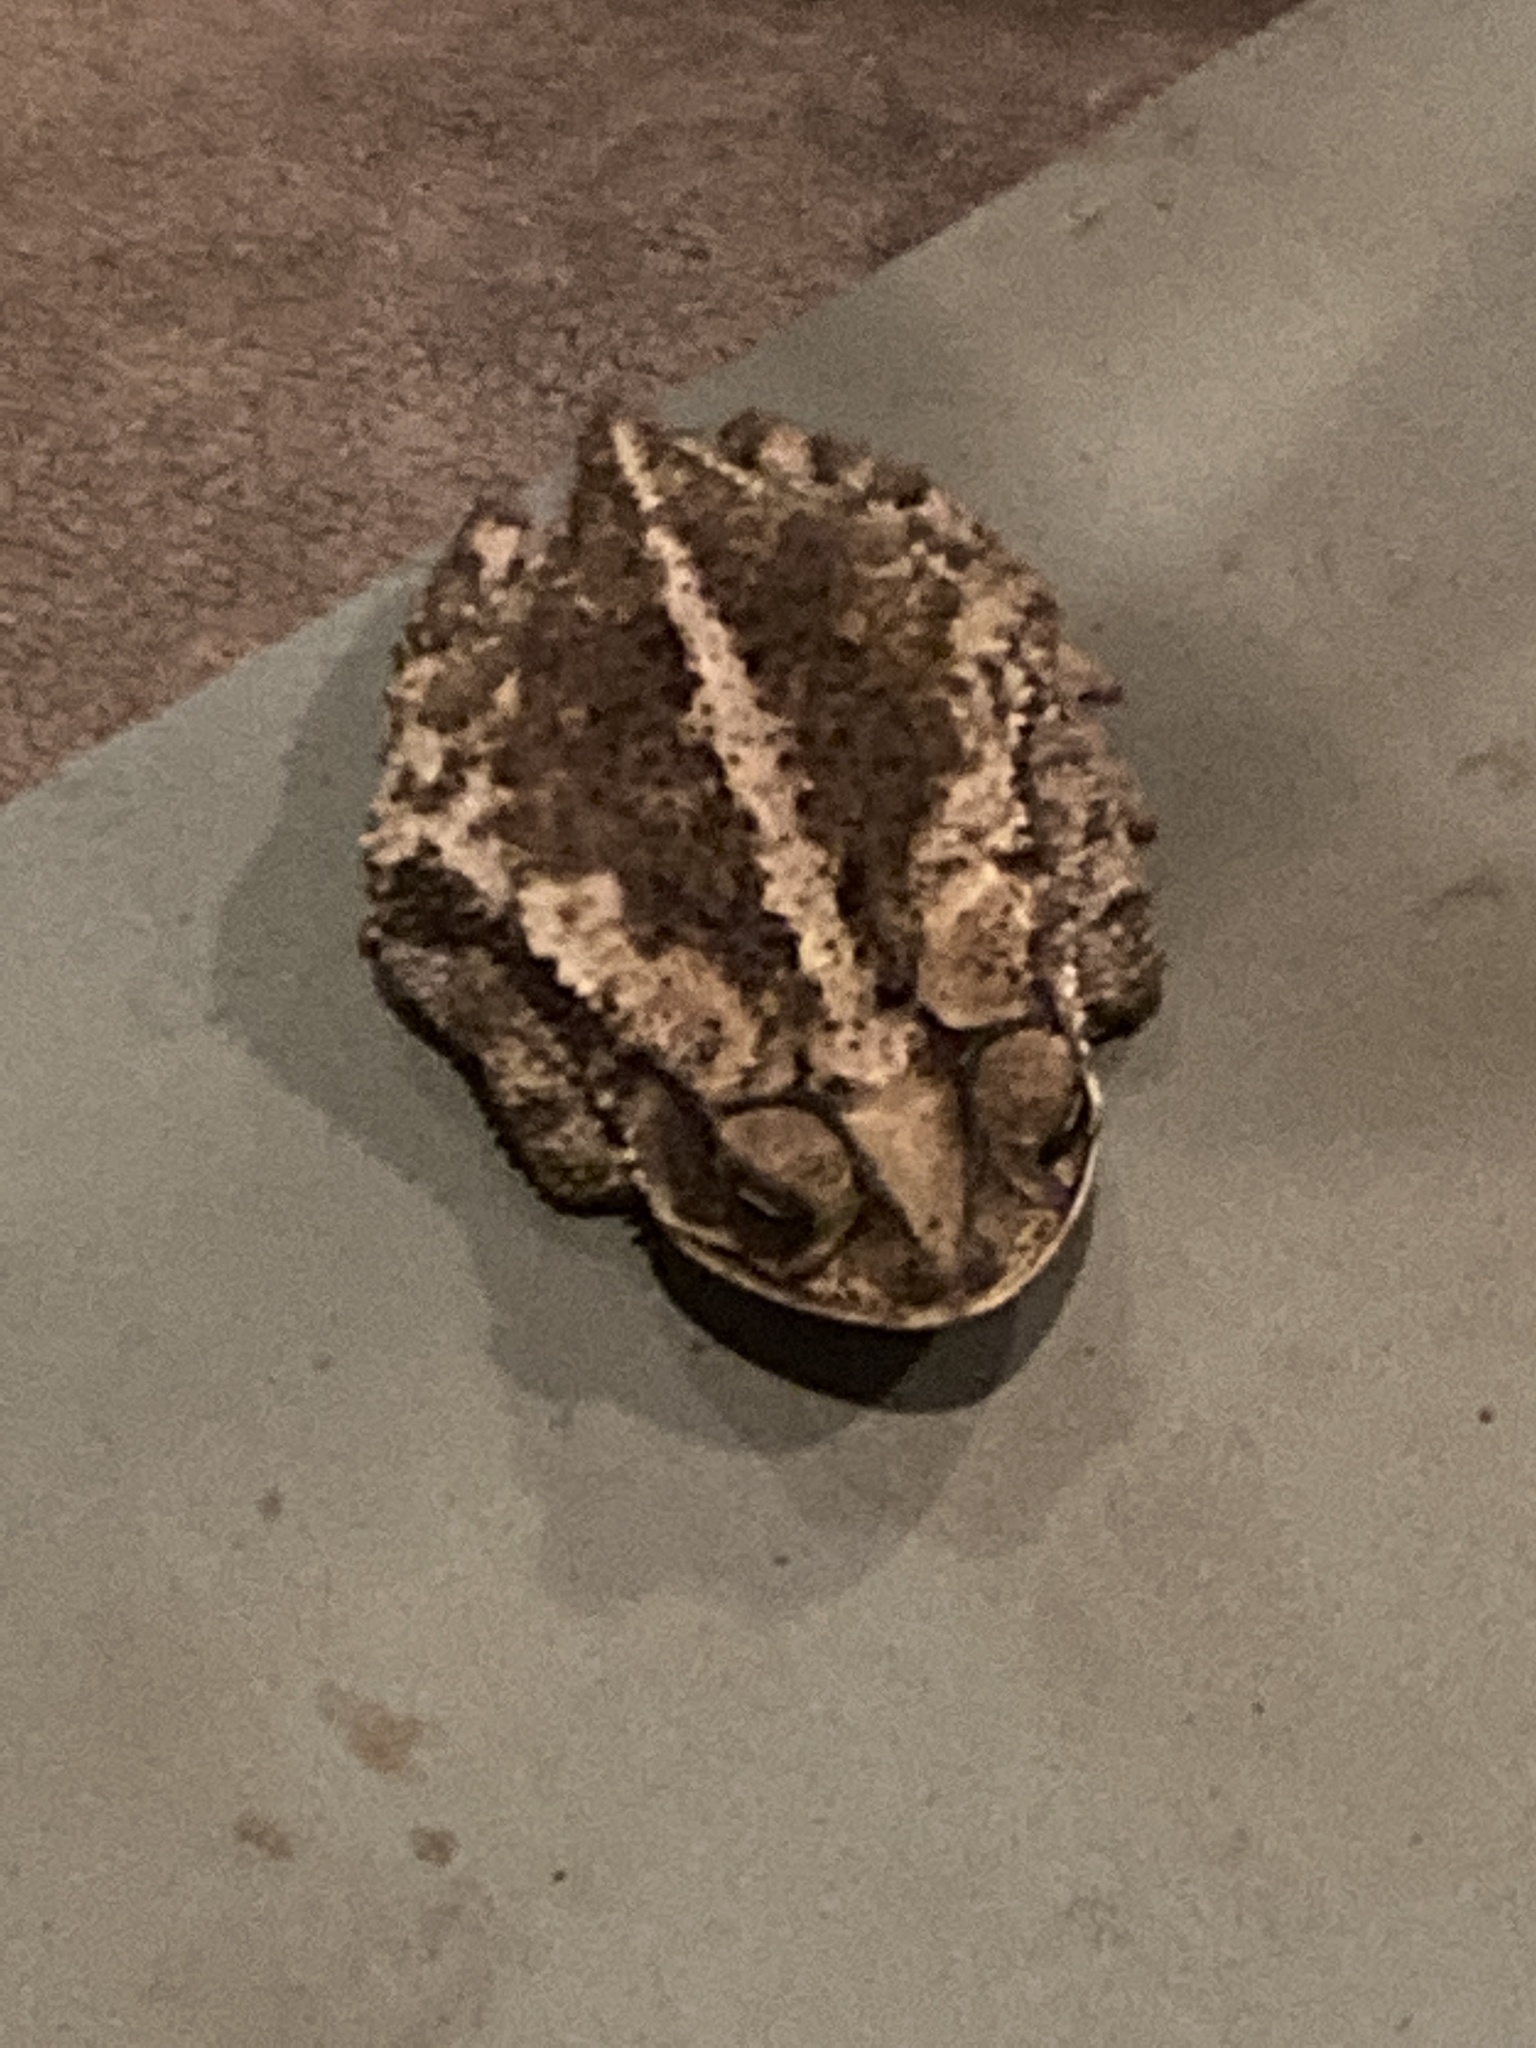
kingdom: Animalia
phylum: Chordata
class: Amphibia
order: Anura
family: Bufonidae
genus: Incilius
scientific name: Incilius nebulifer
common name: Gulf coast toad
